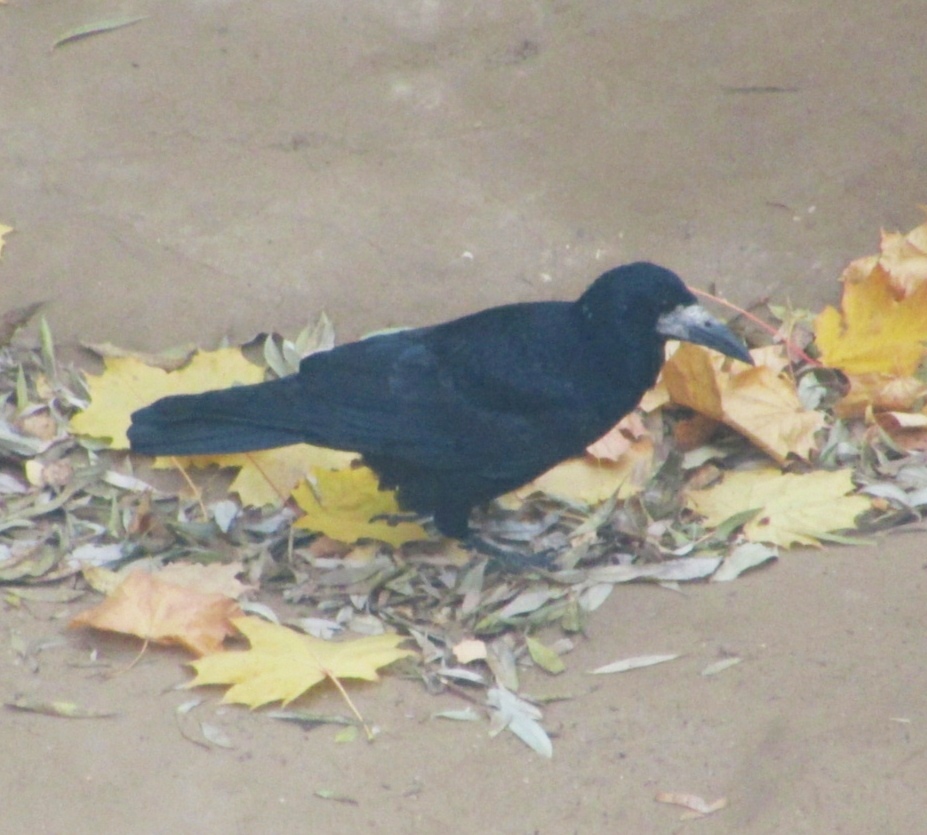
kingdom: Animalia
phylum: Chordata
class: Aves
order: Passeriformes
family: Corvidae
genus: Corvus
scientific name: Corvus frugilegus
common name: Rook
